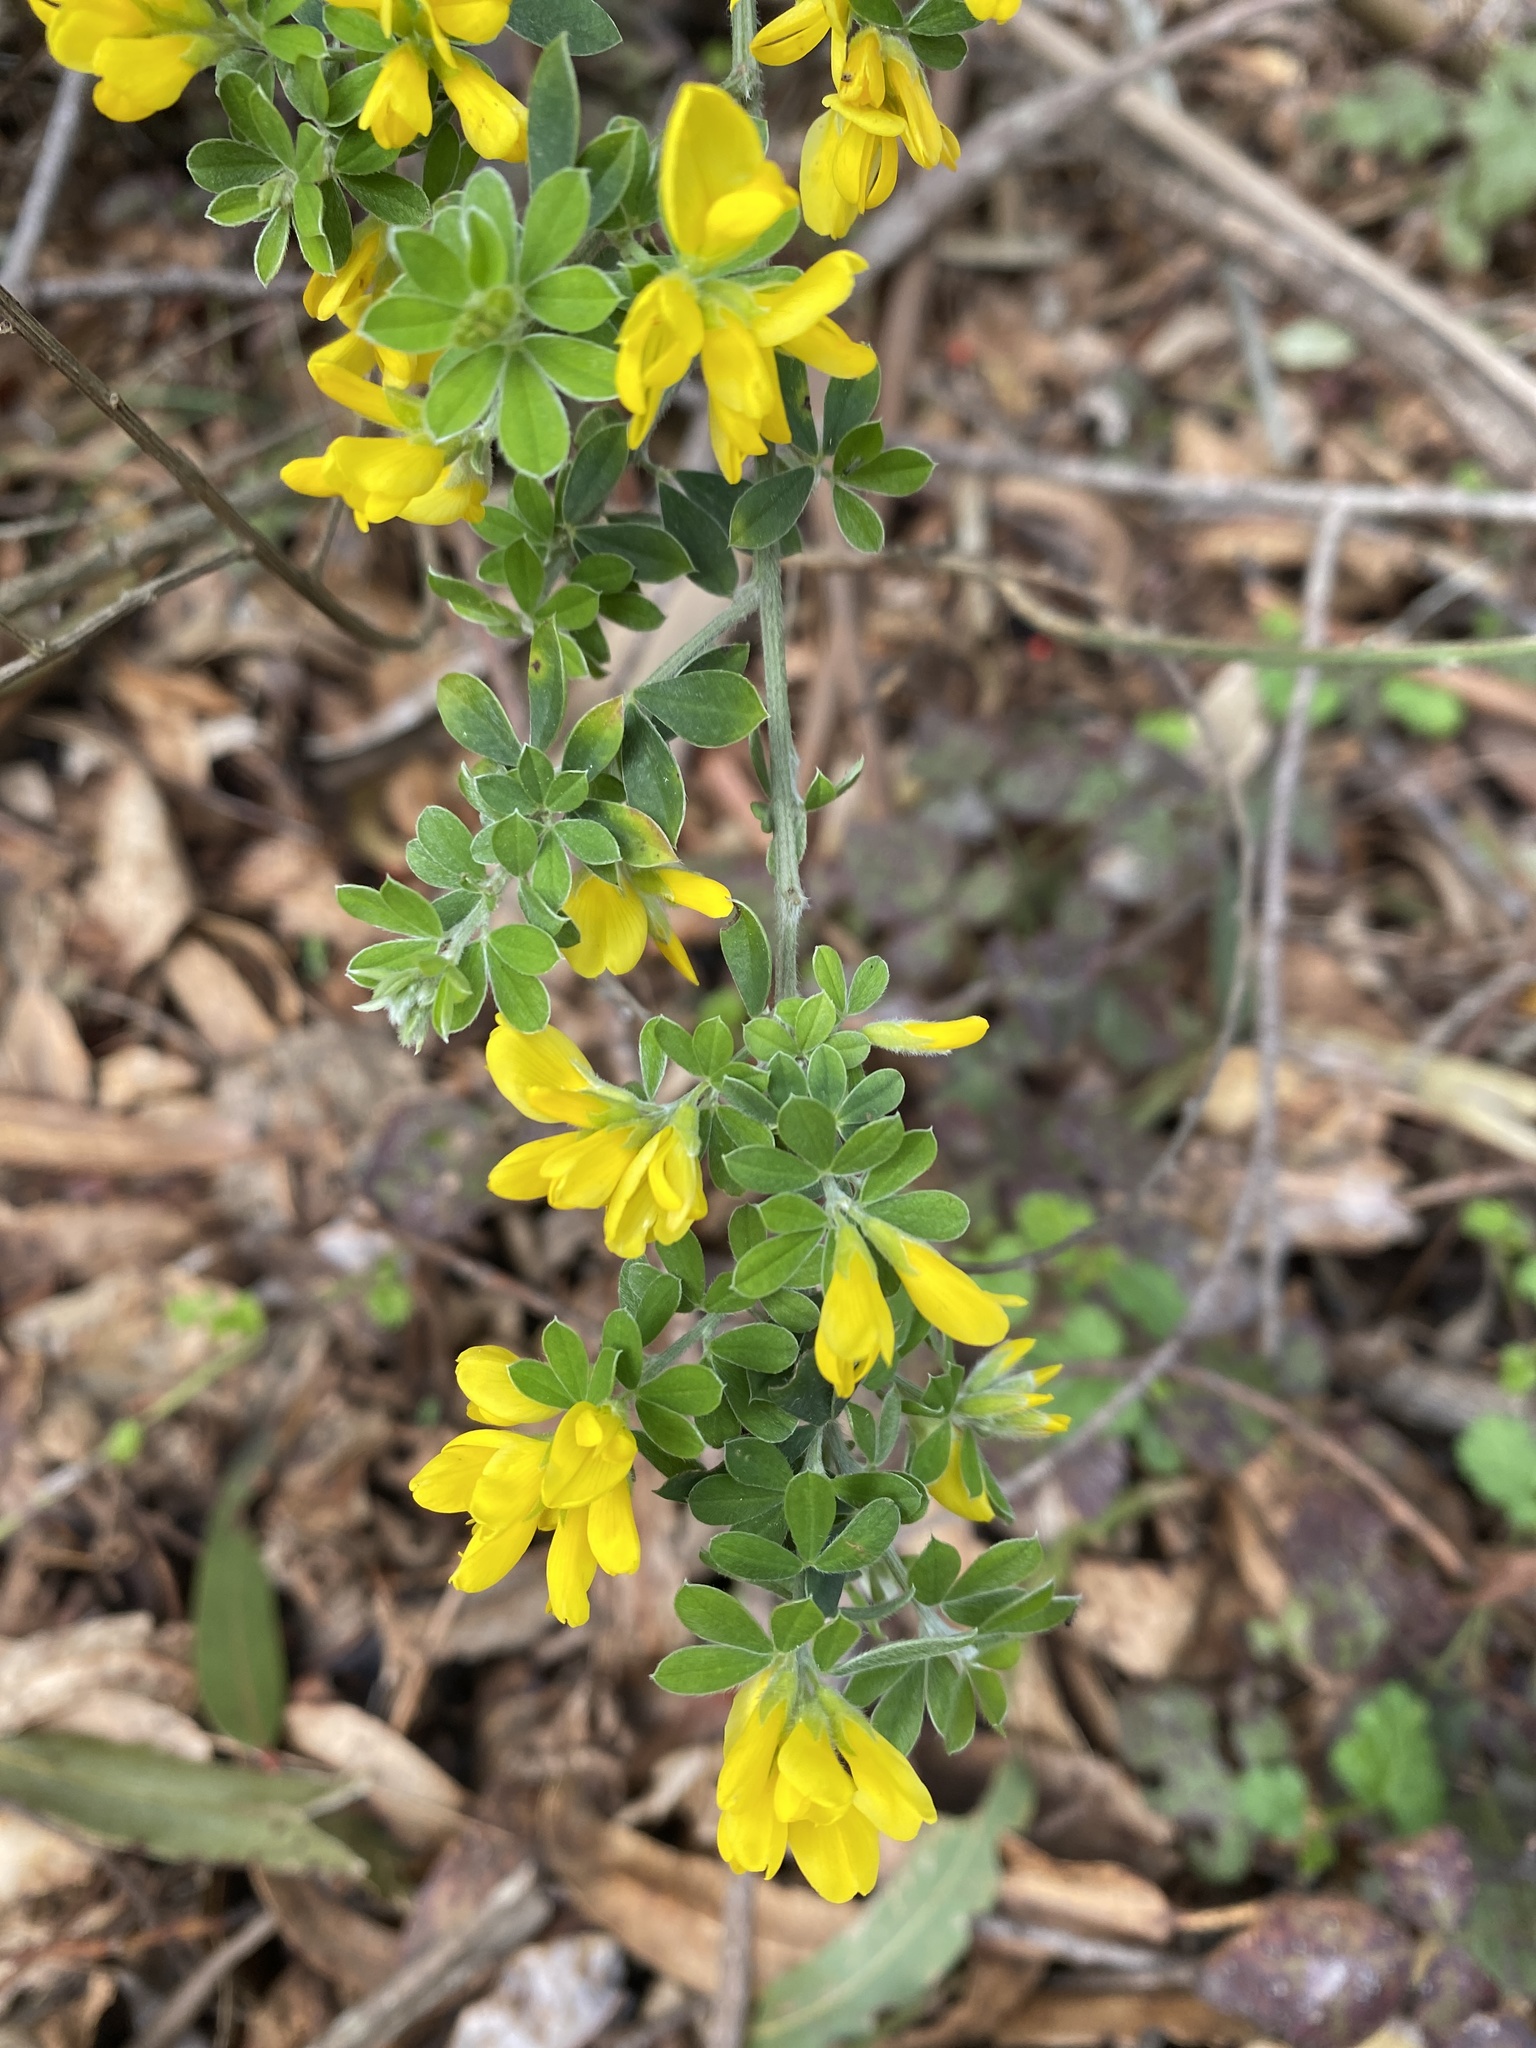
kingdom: Plantae
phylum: Tracheophyta
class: Magnoliopsida
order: Fabales
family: Fabaceae
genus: Genista
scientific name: Genista monspessulana
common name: Montpellier broom
